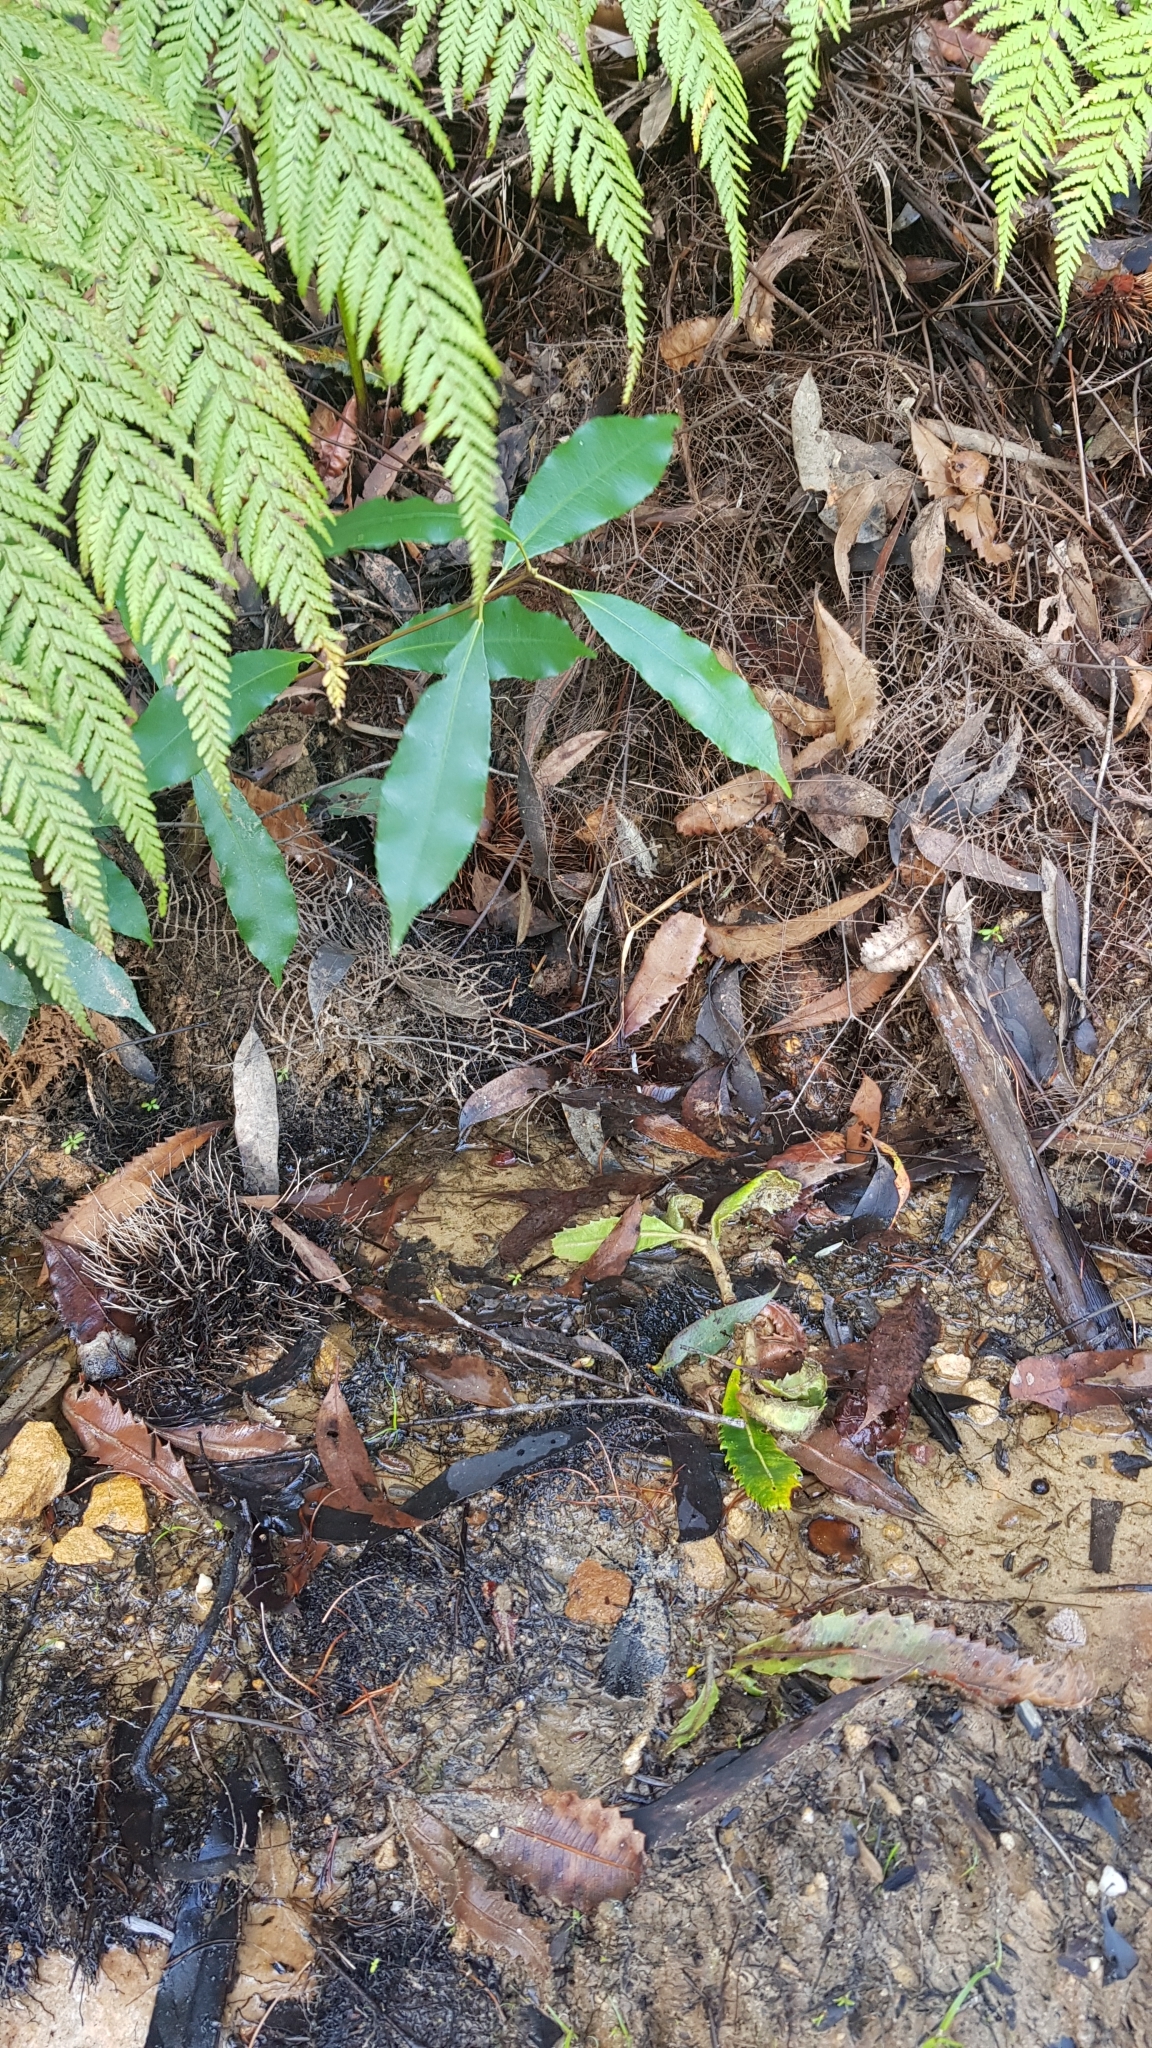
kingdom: Animalia
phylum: Chordata
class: Amphibia
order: Anura
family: Myobatrachidae
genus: Pseudophryne
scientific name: Pseudophryne australis
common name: Red-crowned toadlet
